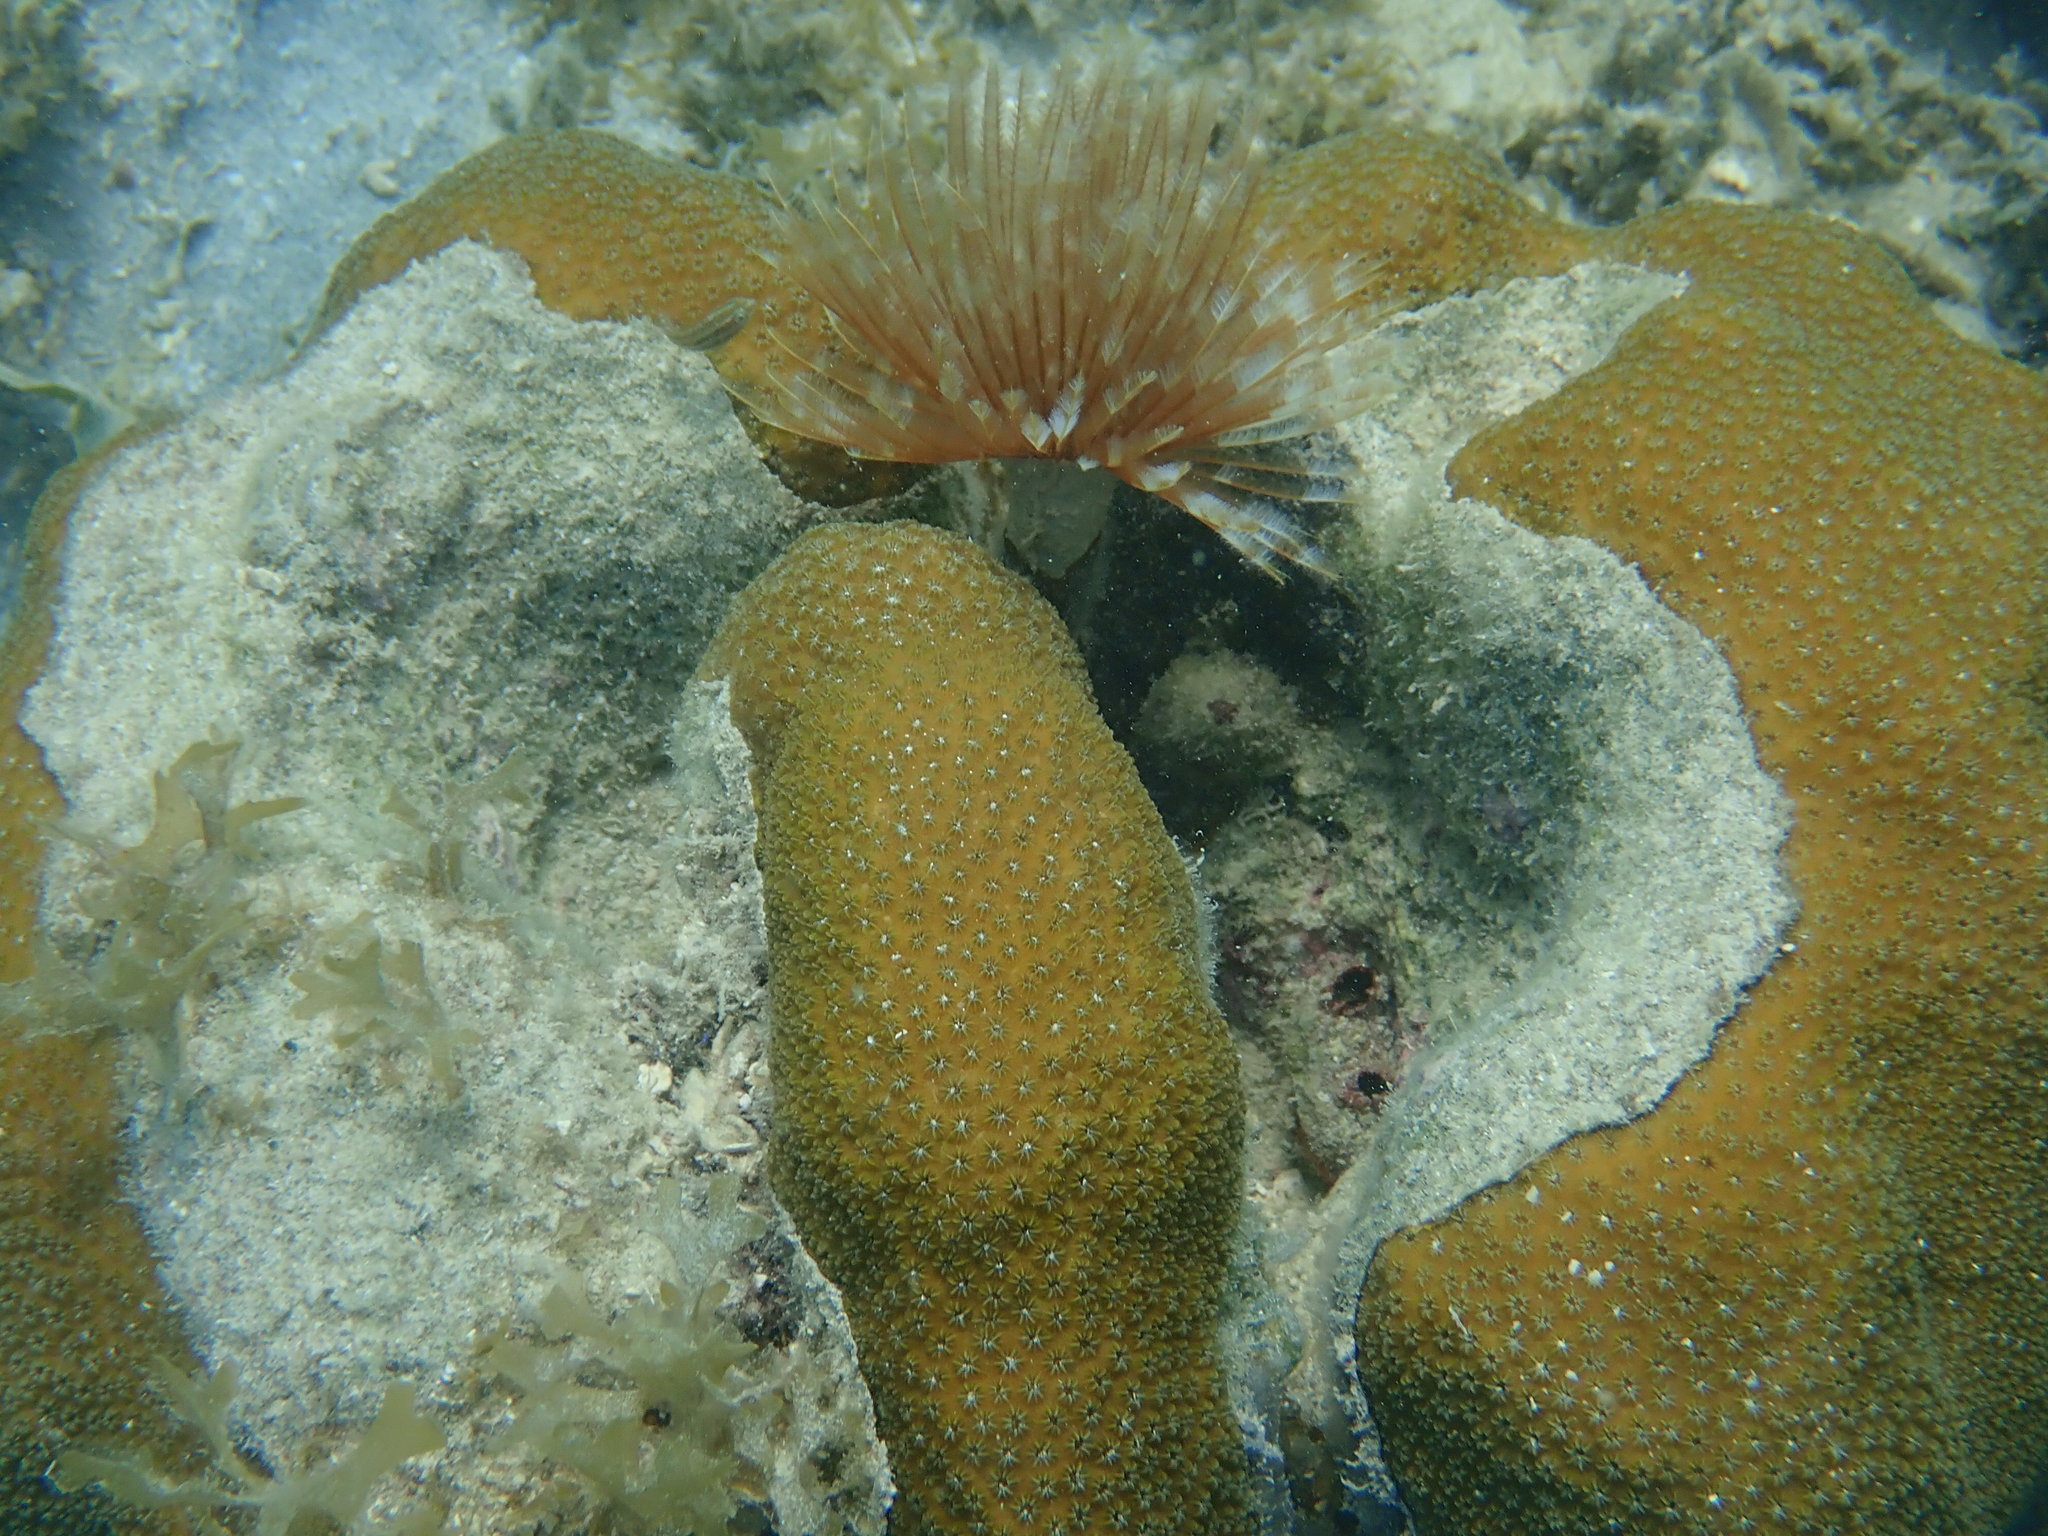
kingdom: Animalia
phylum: Annelida
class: Polychaeta
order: Sabellida
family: Sabellidae
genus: Sabellastarte
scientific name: Sabellastarte magnifica
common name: Giant feather-duster worm
